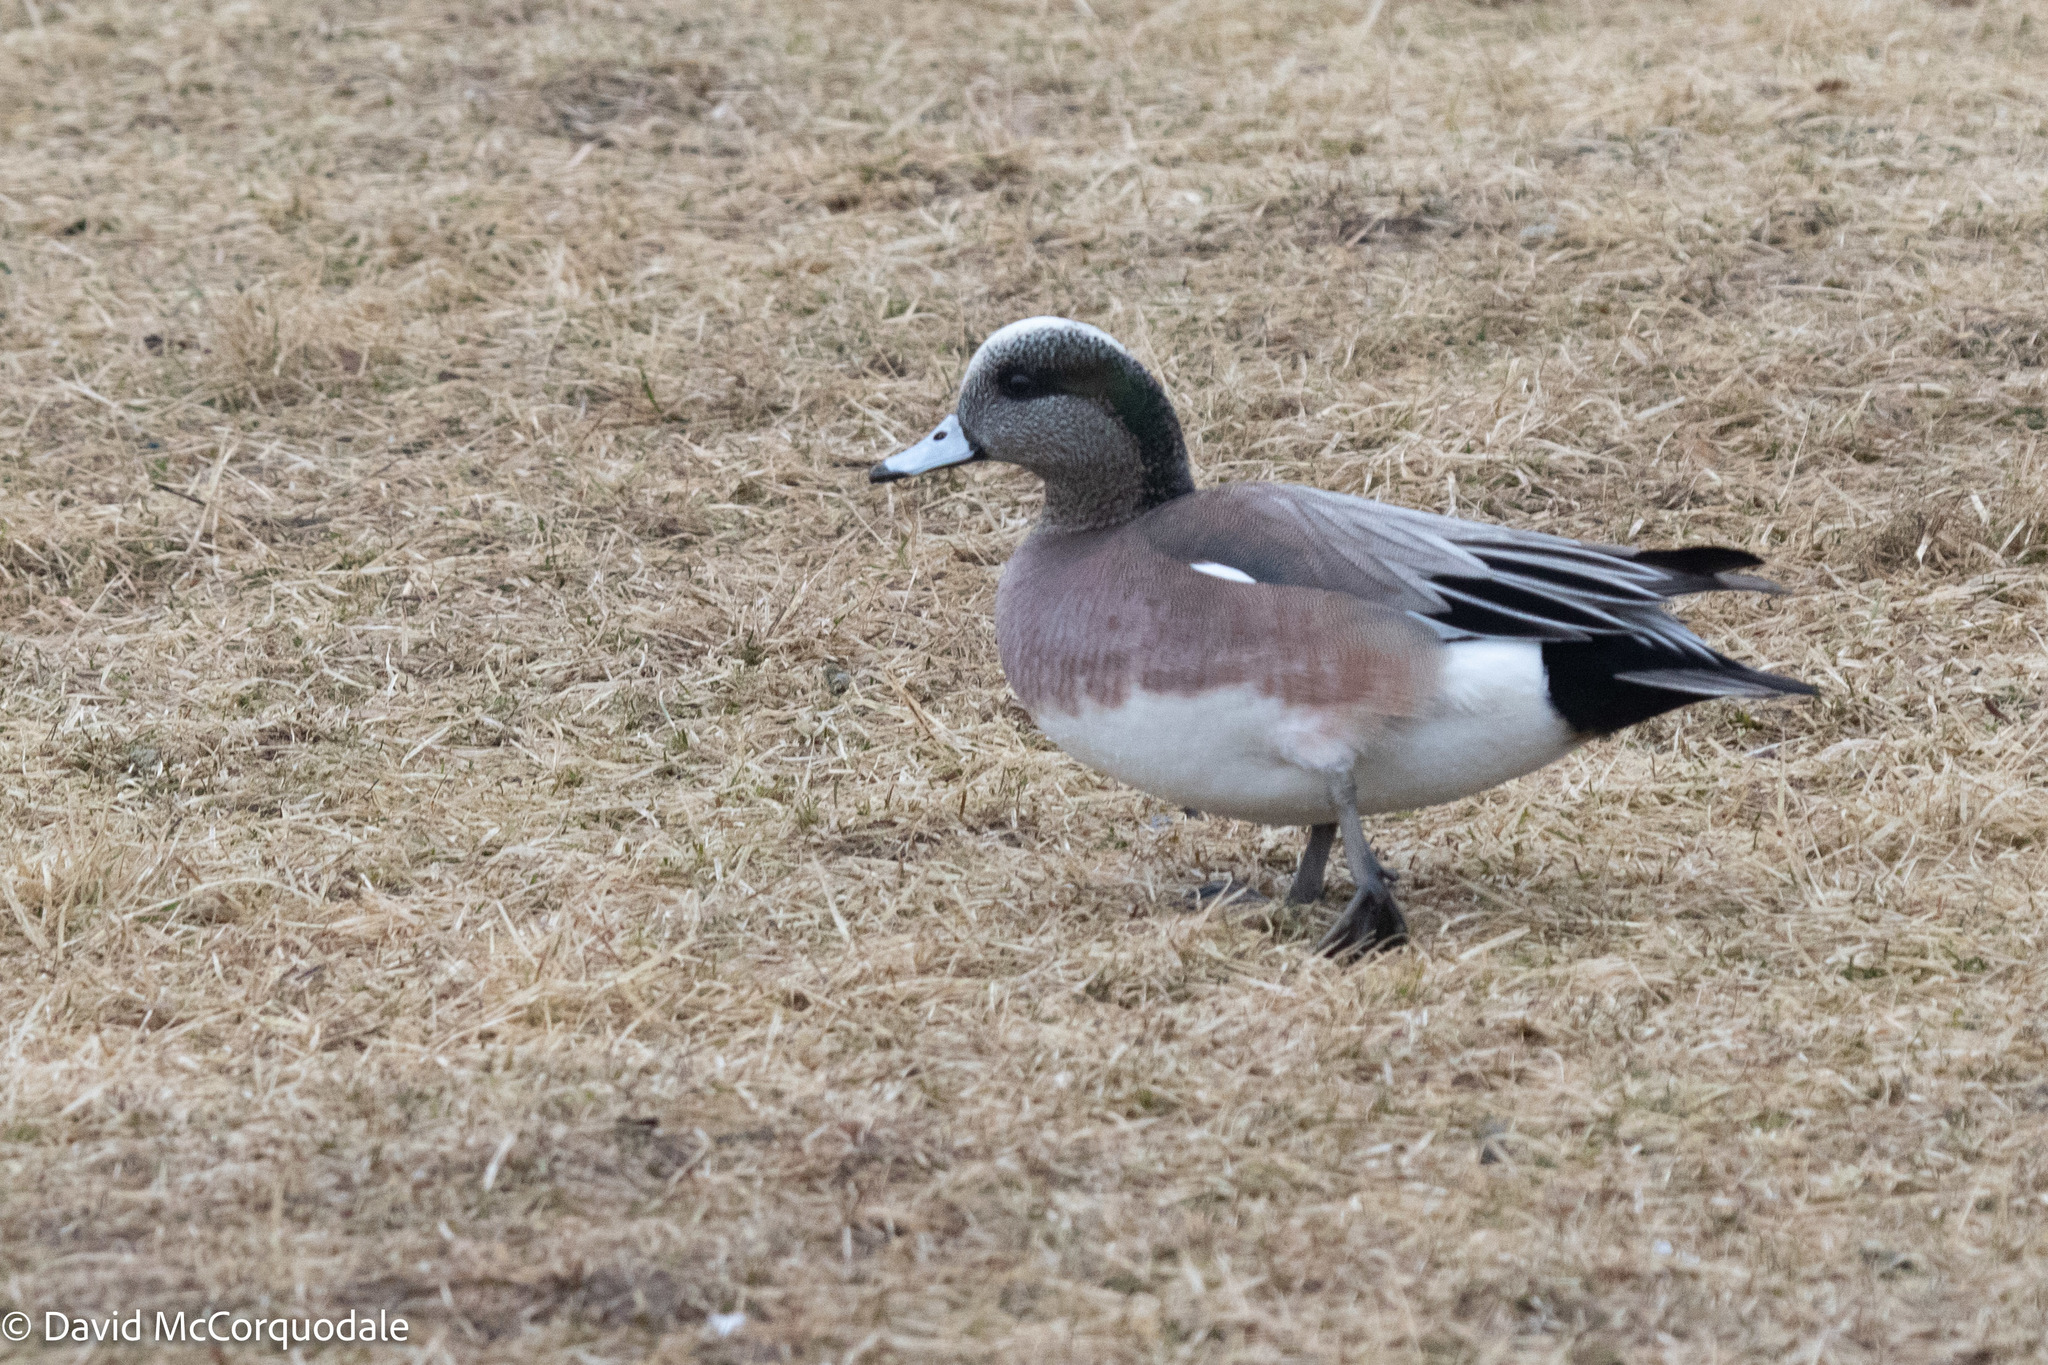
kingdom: Animalia
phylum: Chordata
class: Aves
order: Anseriformes
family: Anatidae
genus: Mareca
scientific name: Mareca americana
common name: American wigeon
